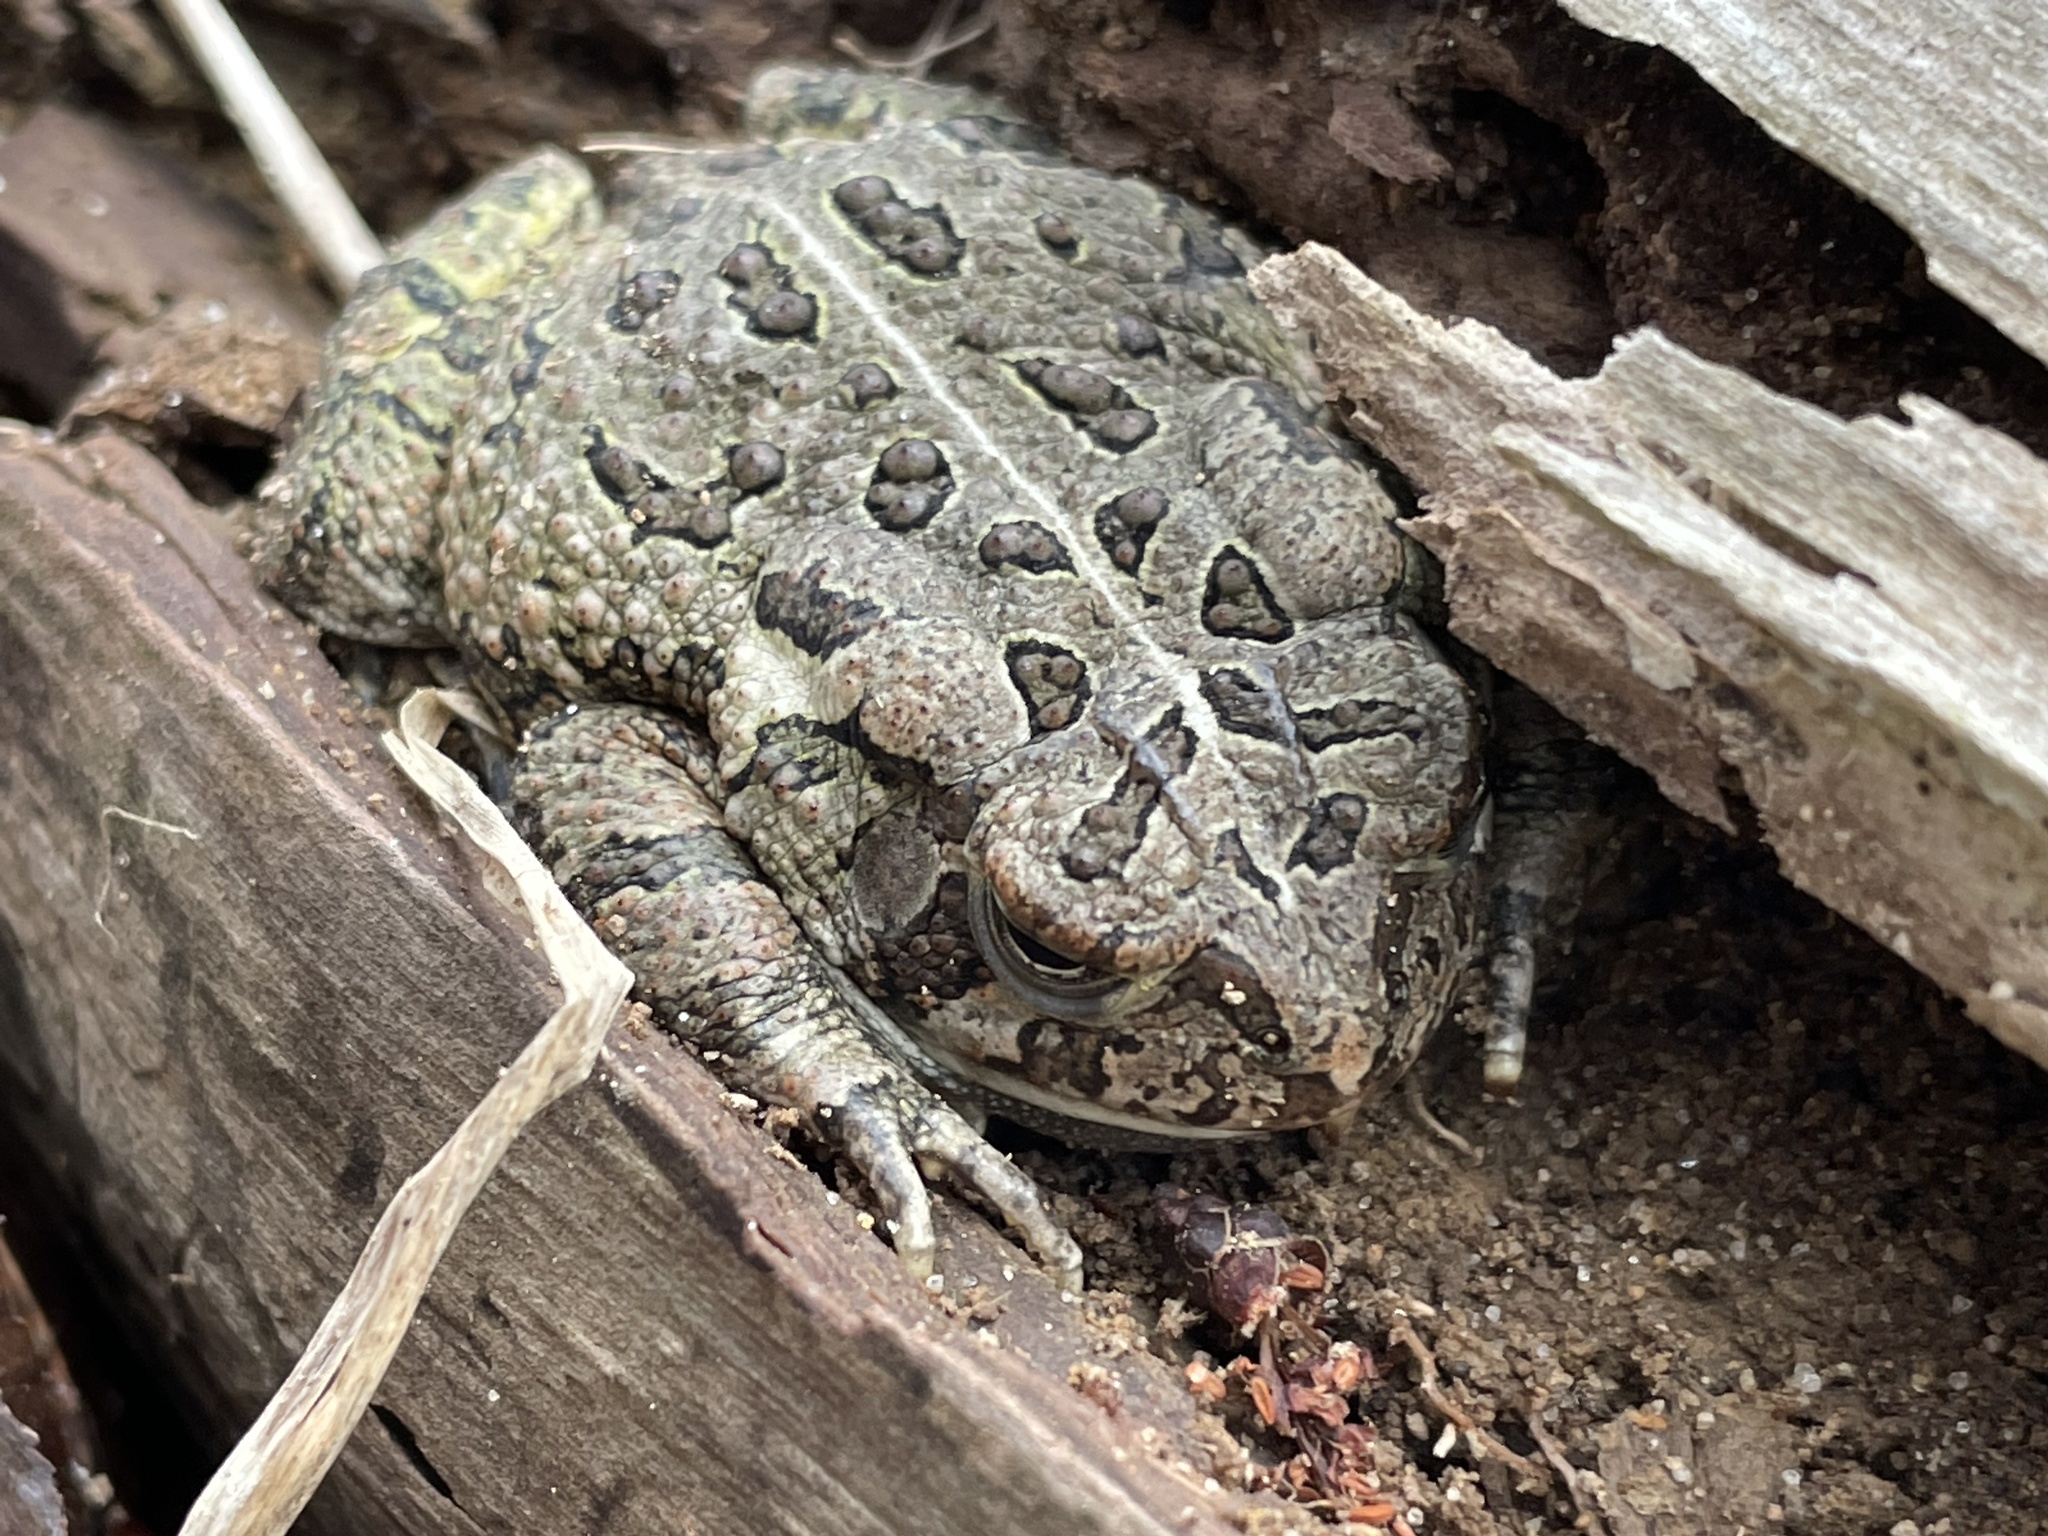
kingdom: Animalia
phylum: Chordata
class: Amphibia
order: Anura
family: Bufonidae
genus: Anaxyrus
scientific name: Anaxyrus fowleri
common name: Fowler's toad
